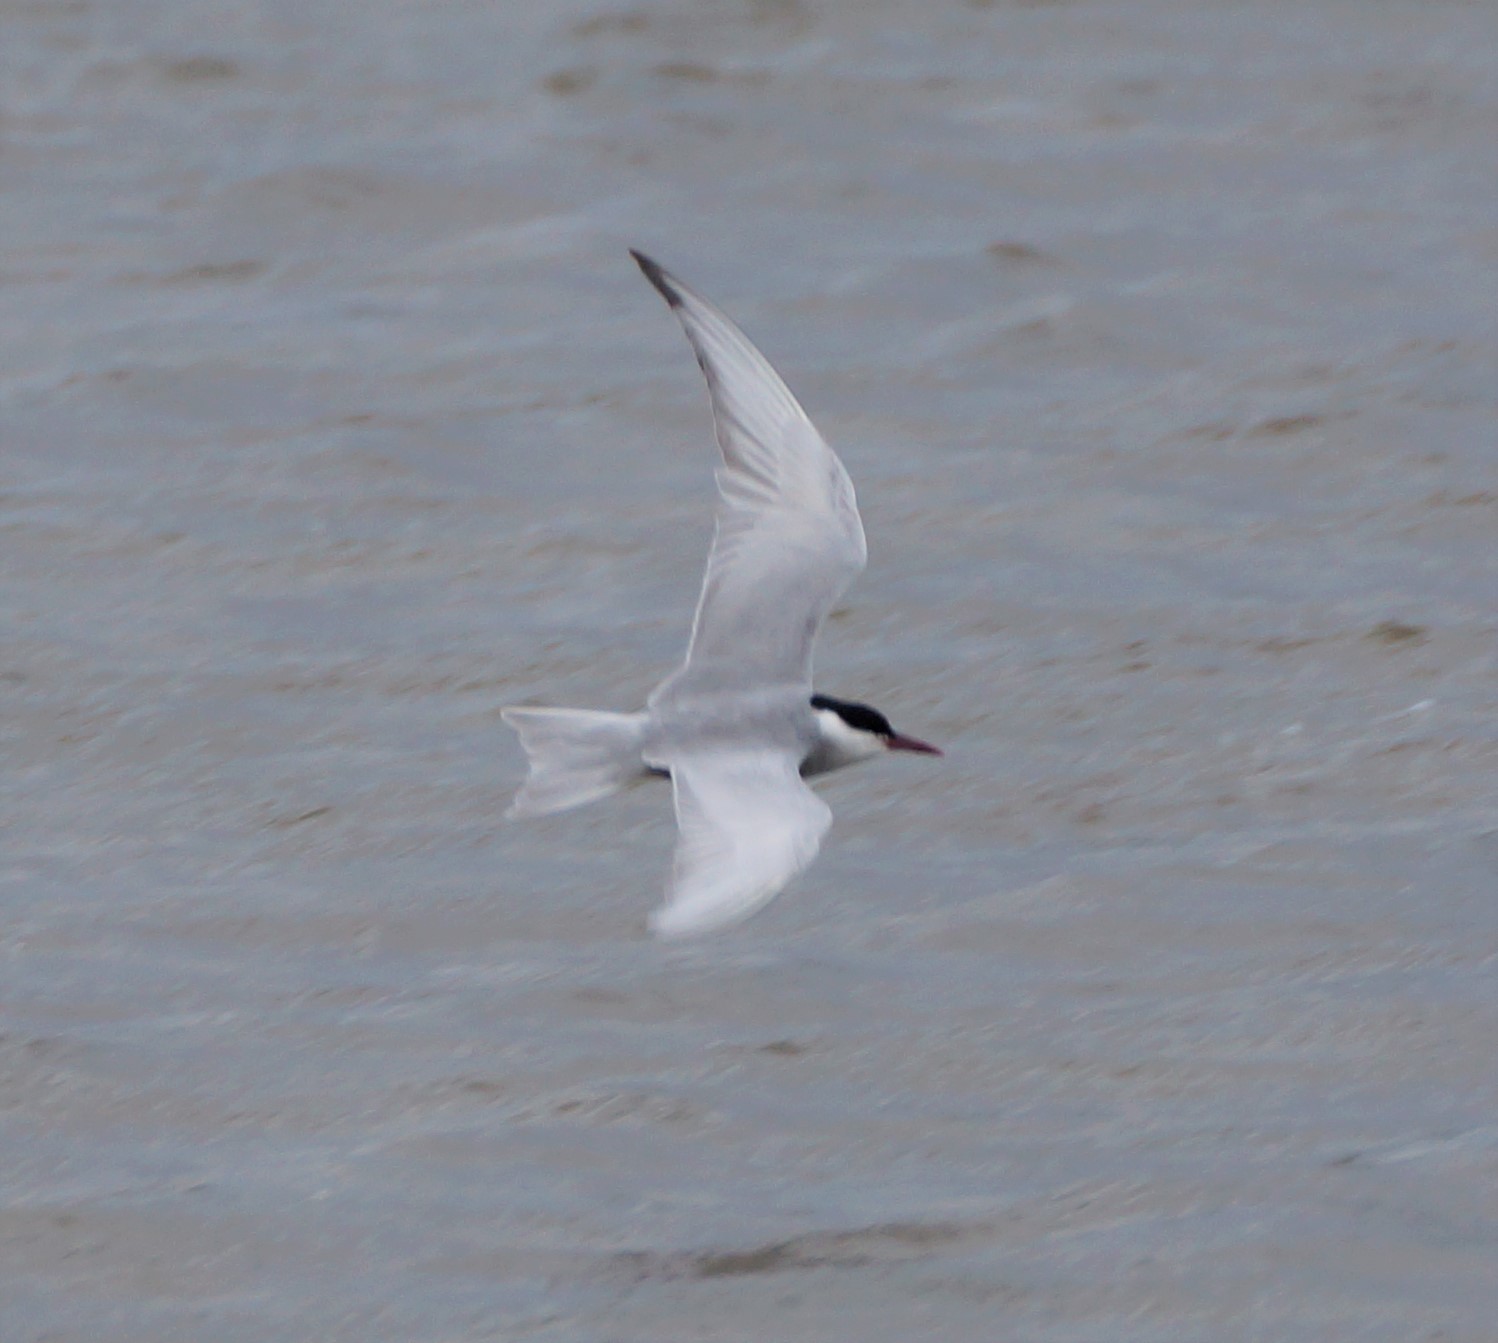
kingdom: Animalia
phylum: Chordata
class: Aves
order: Charadriiformes
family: Laridae
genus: Chlidonias
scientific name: Chlidonias hybrida
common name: Whiskered tern
